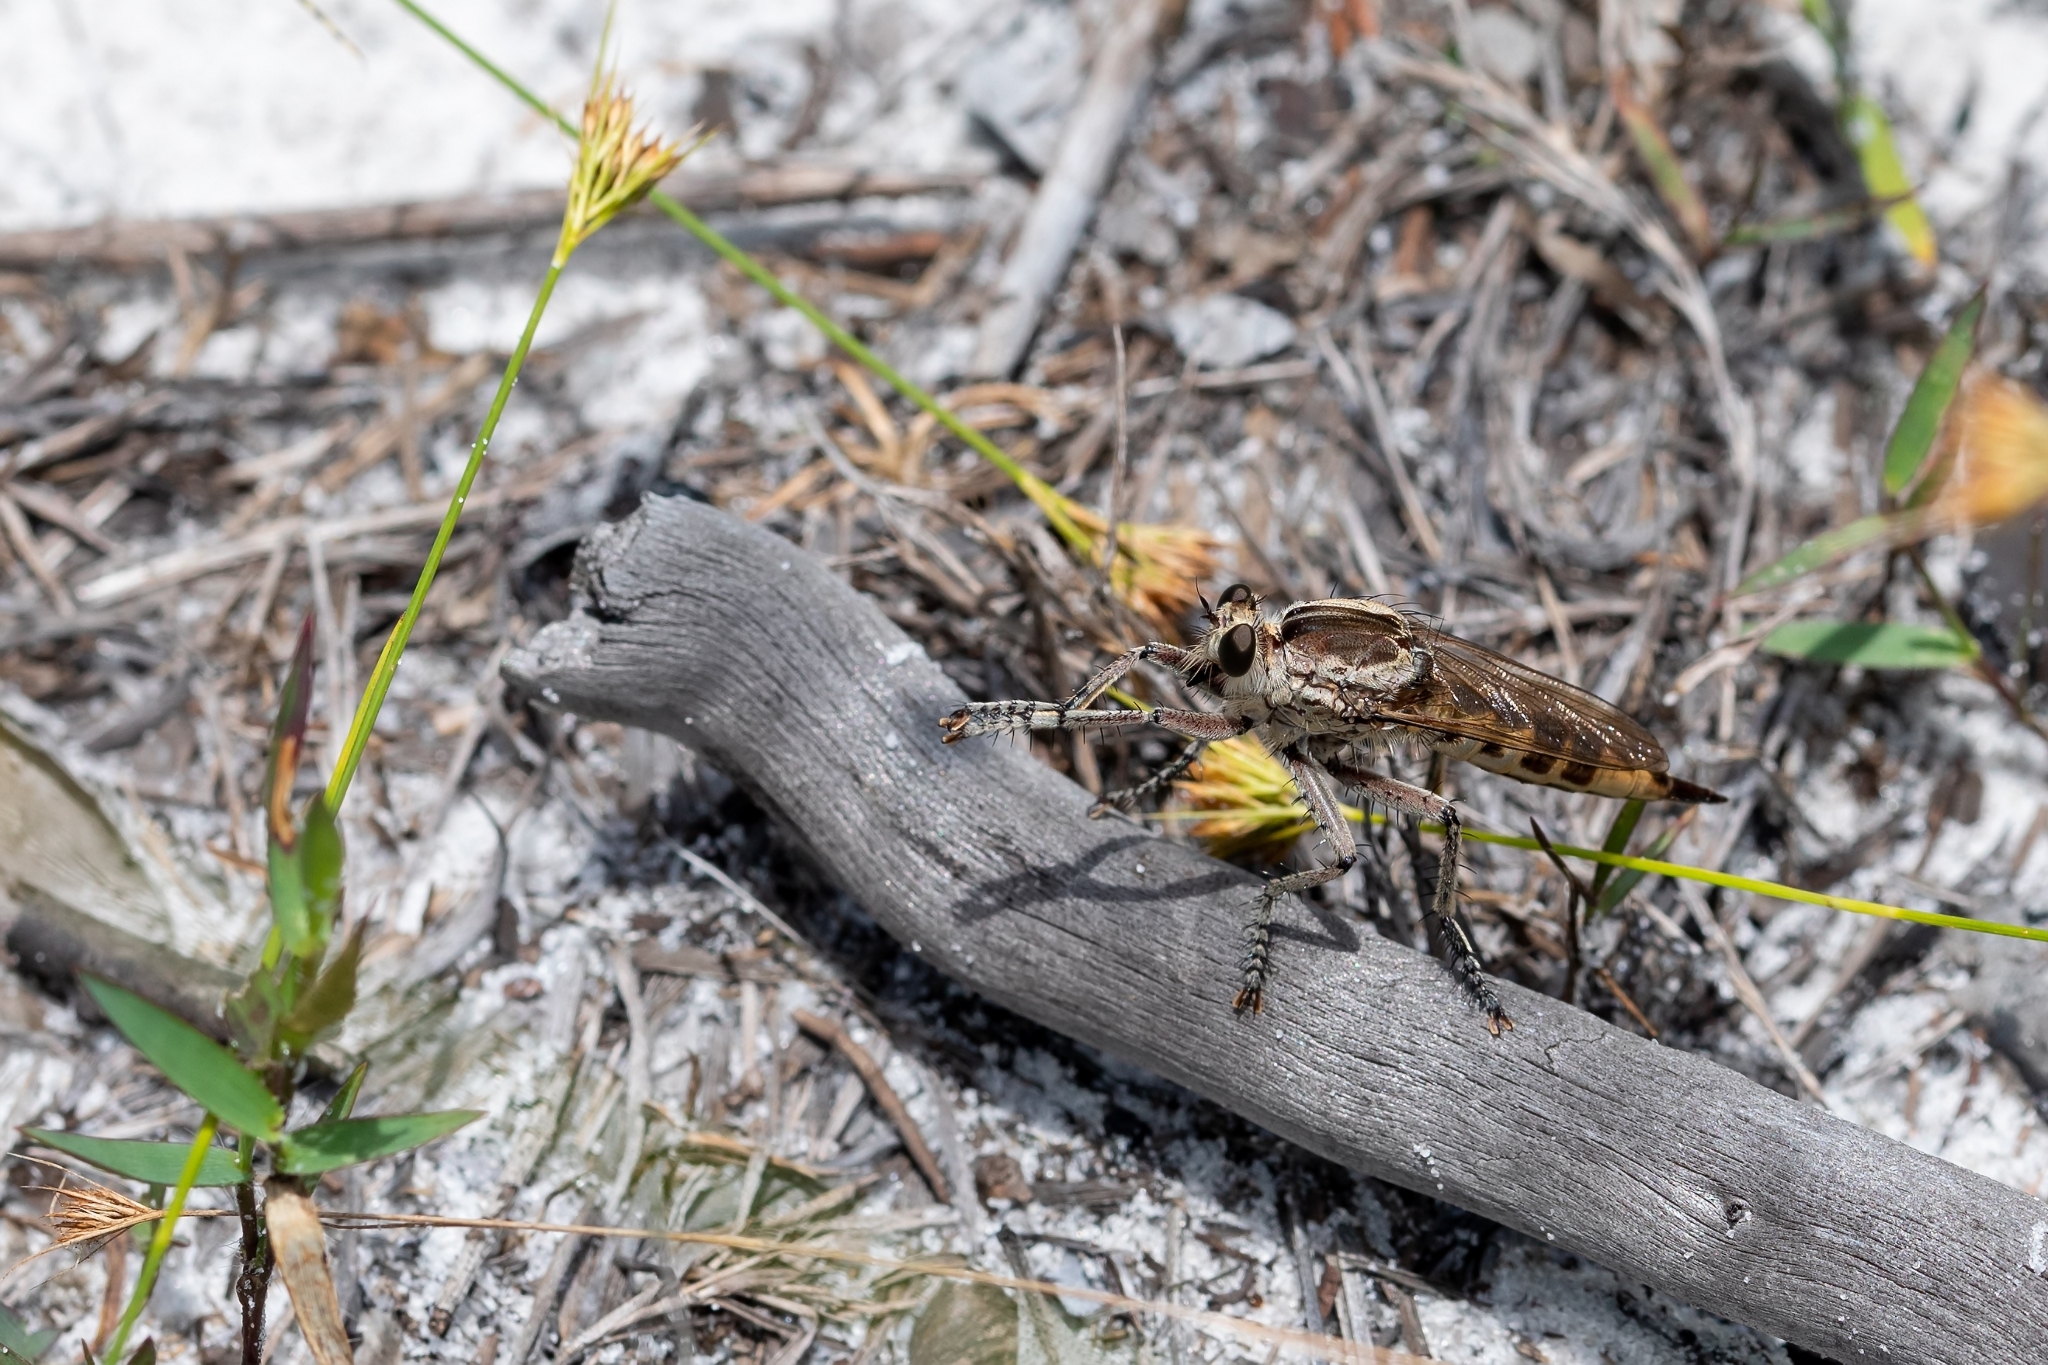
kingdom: Animalia
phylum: Arthropoda
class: Insecta
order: Diptera
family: Asilidae
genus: Triorla
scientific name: Triorla interrupta
